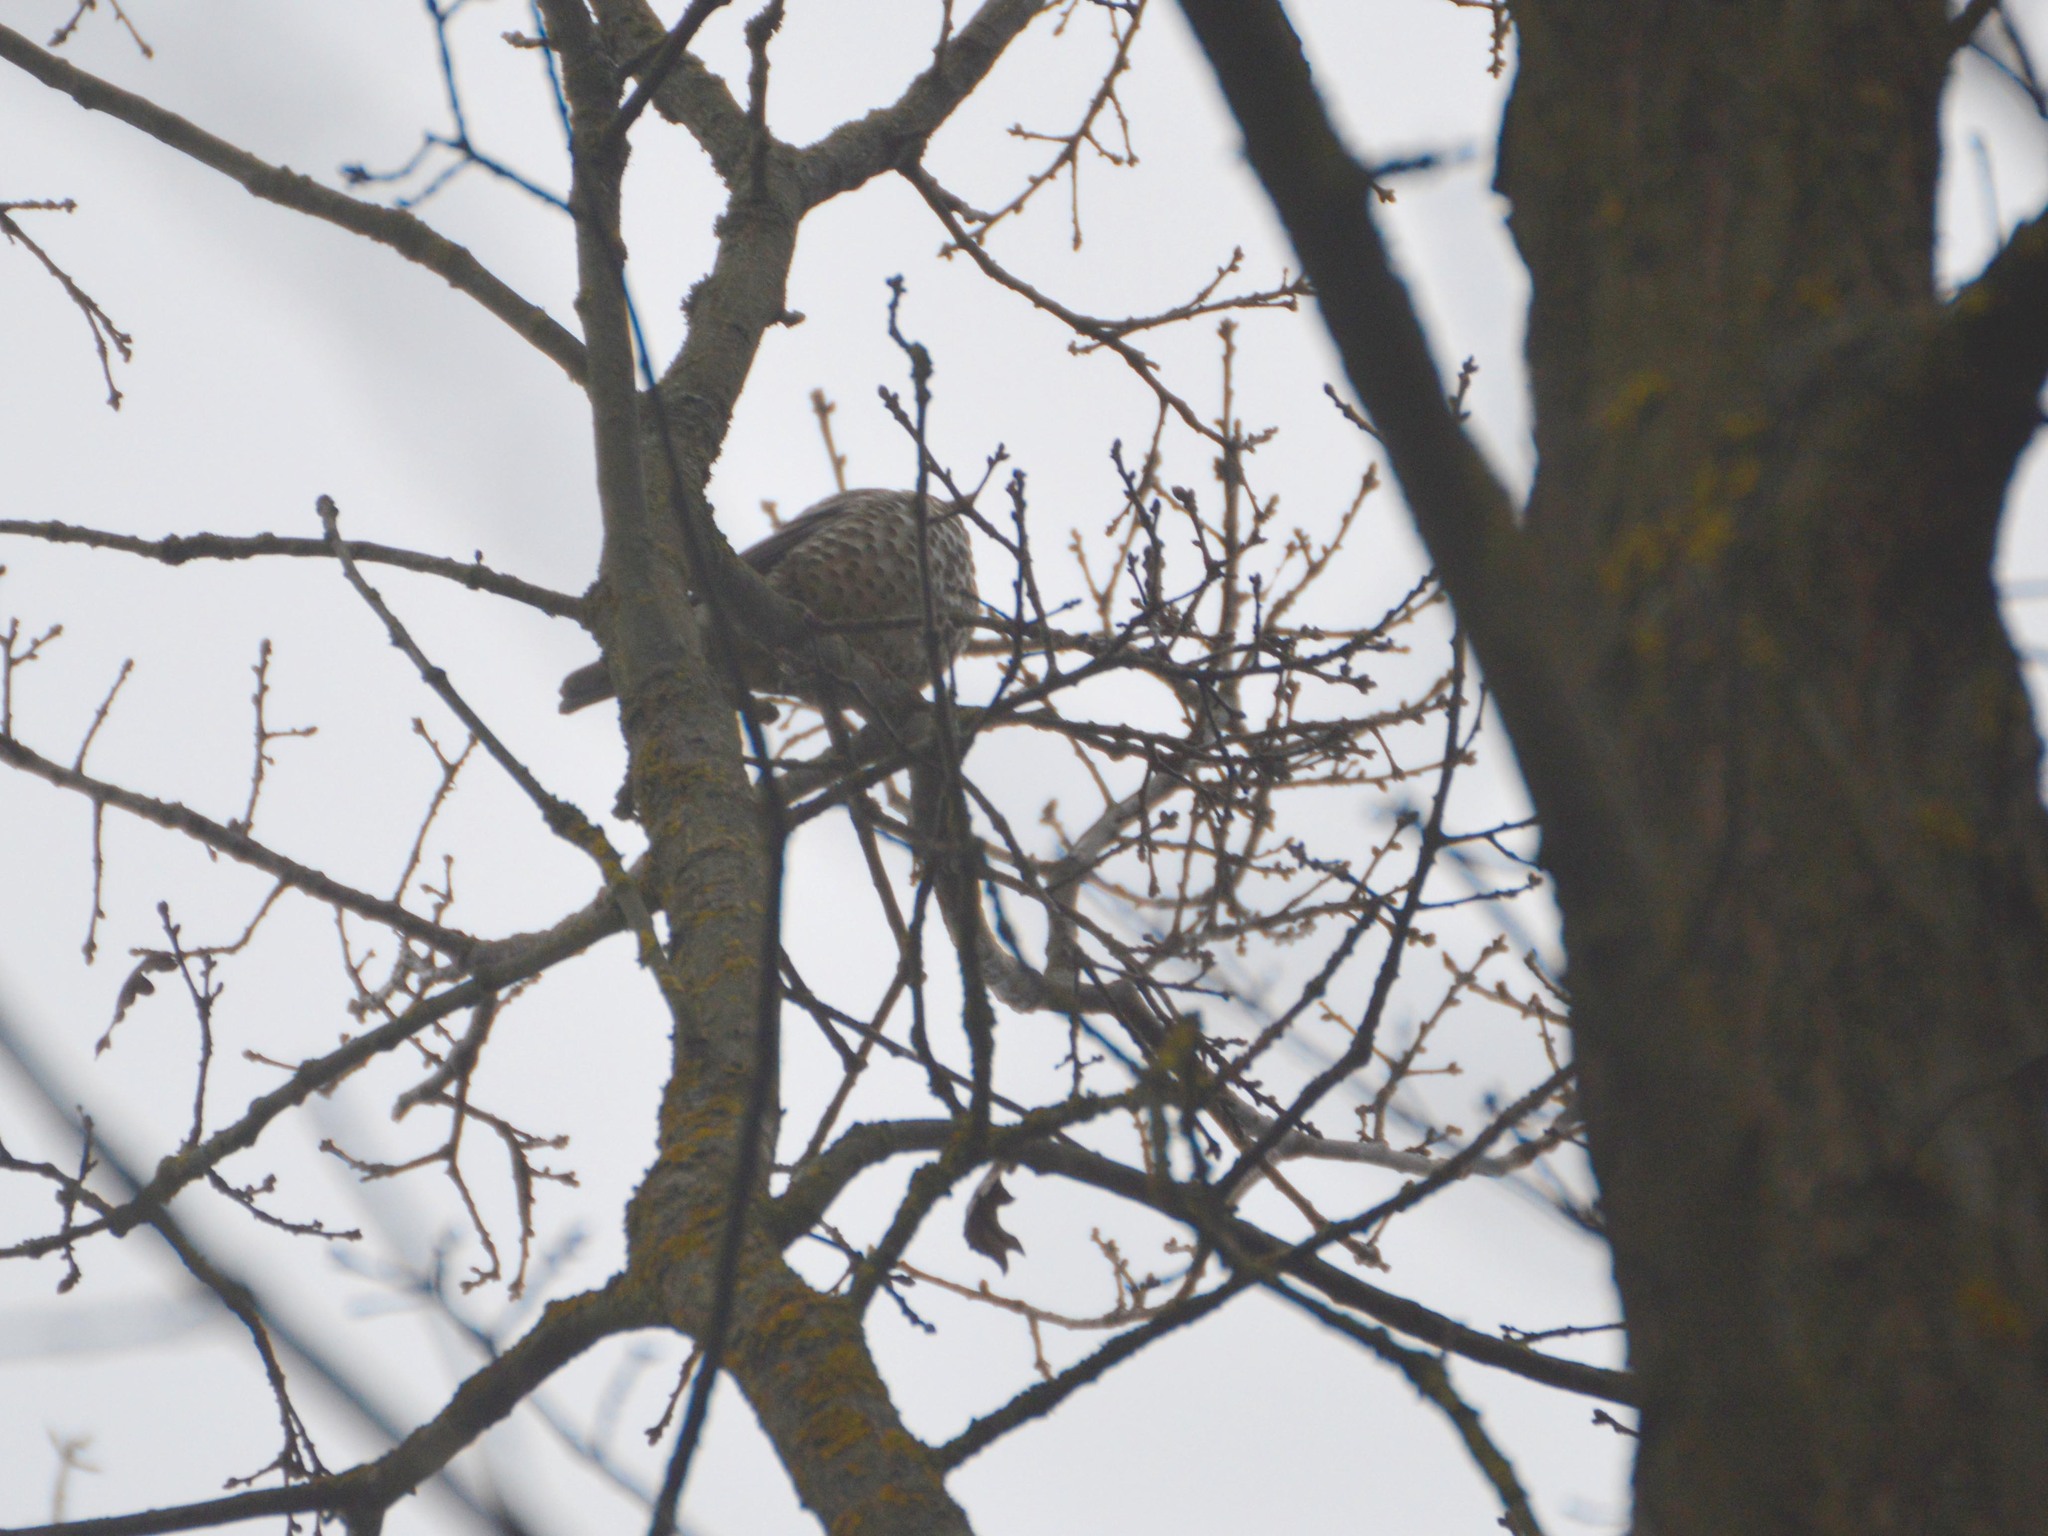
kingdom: Animalia
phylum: Chordata
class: Aves
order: Passeriformes
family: Turdidae
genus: Turdus
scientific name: Turdus viscivorus
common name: Mistle thrush
